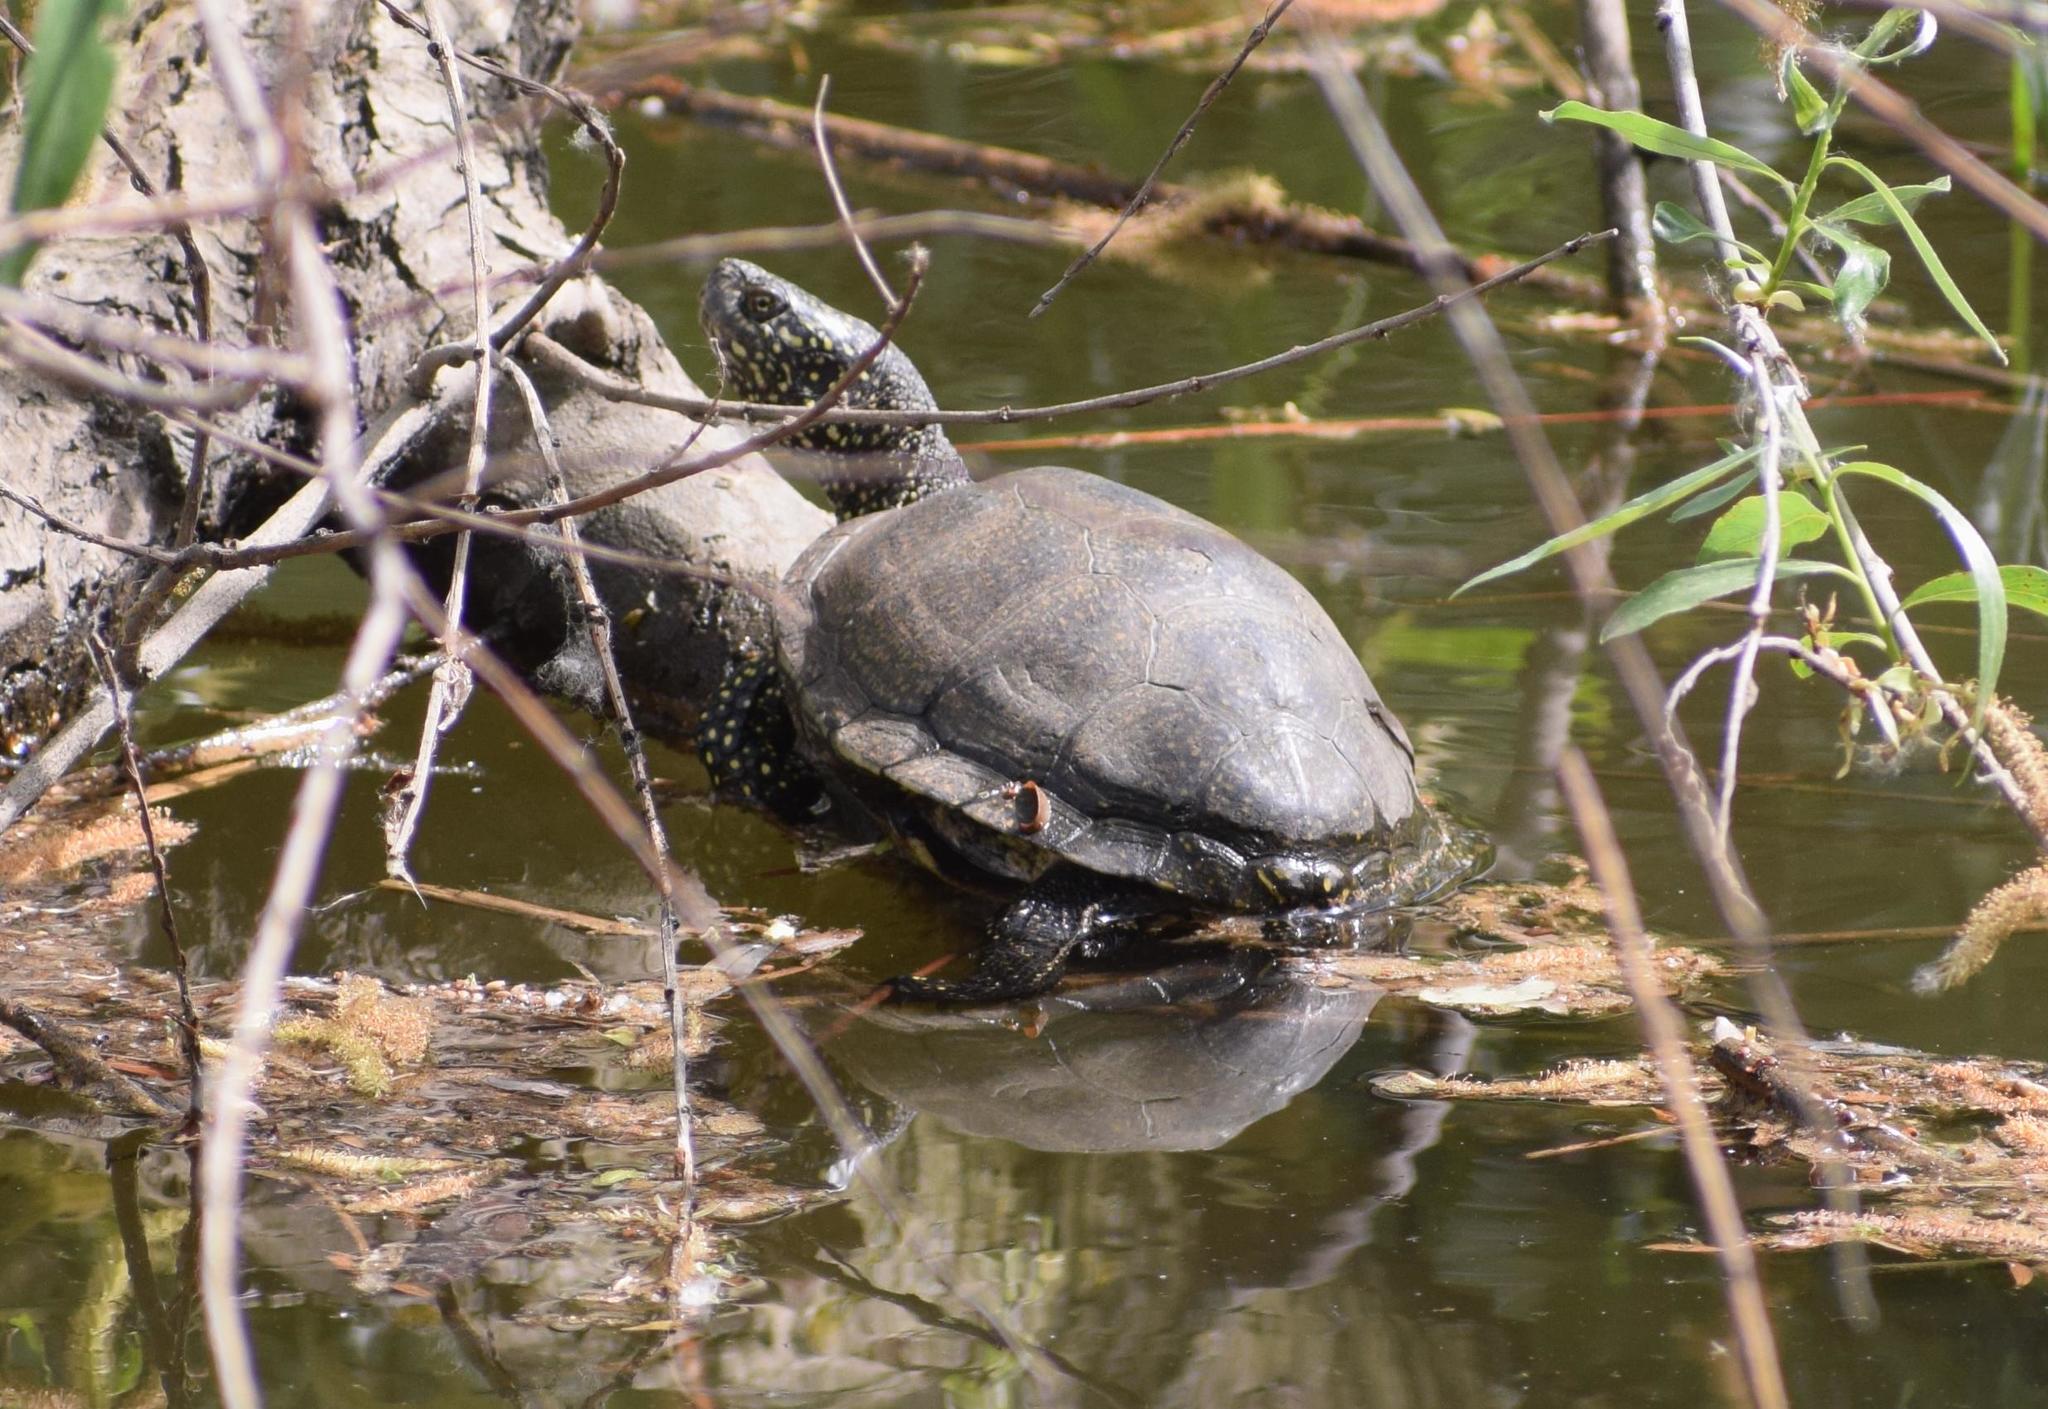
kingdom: Animalia
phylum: Chordata
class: Testudines
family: Emydidae
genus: Emys
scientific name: Emys orbicularis
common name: European pond turtle
